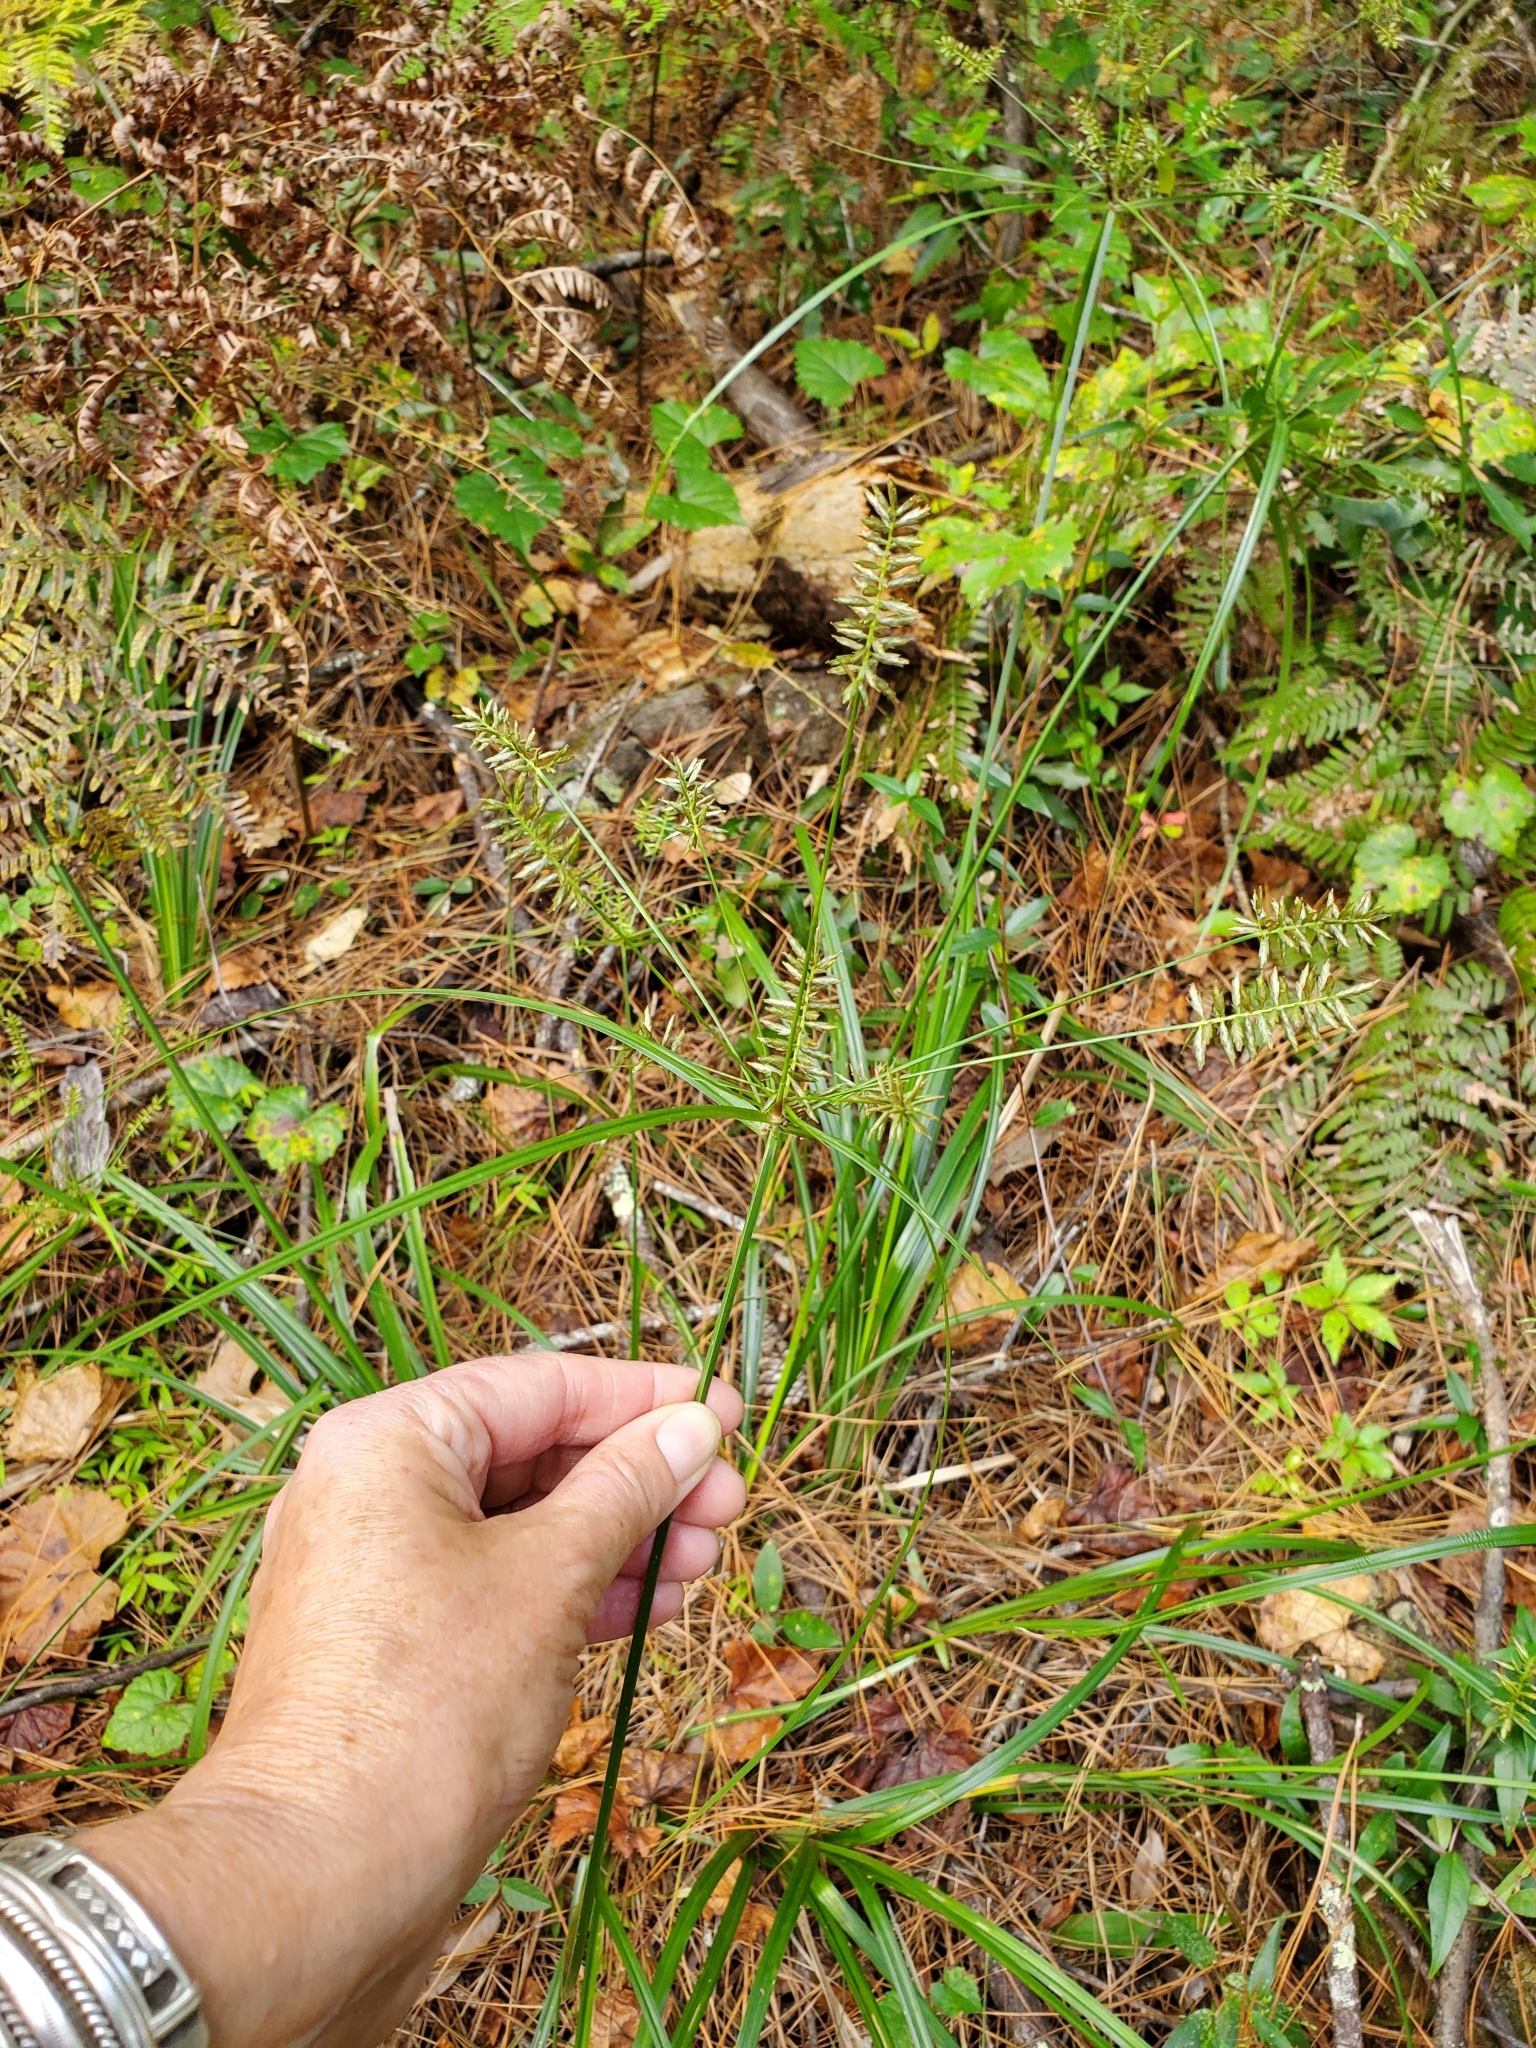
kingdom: Plantae
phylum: Tracheophyta
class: Liliopsida
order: Poales
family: Cyperaceae
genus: Cyperus
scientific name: Cyperus tetragonus
